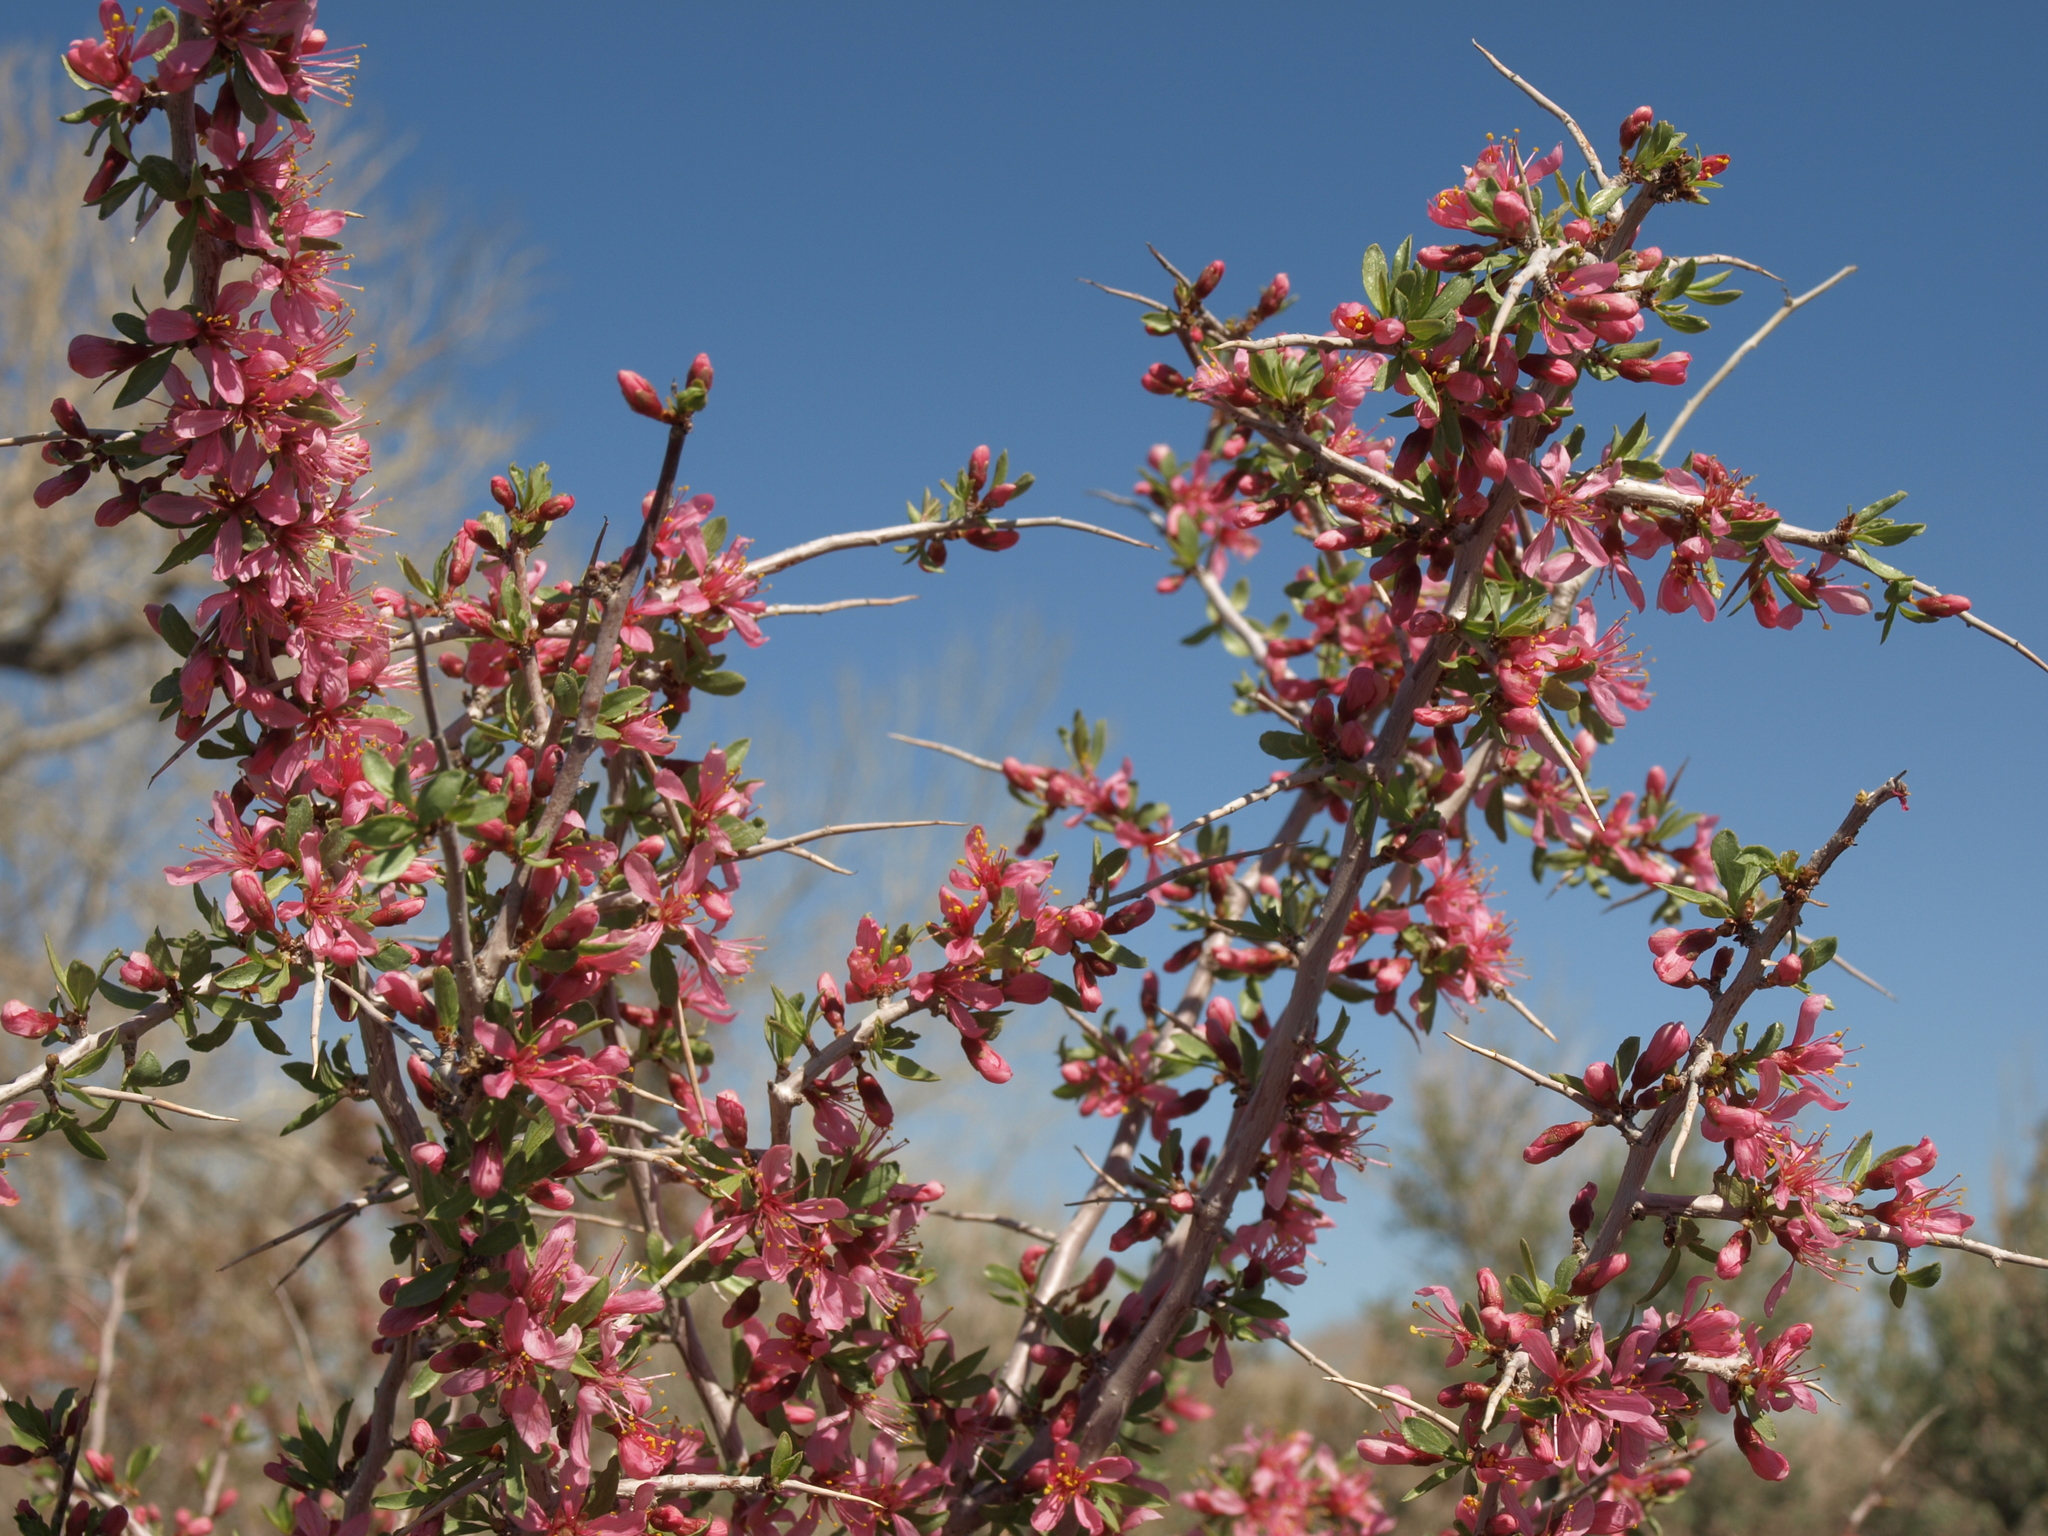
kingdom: Plantae
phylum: Tracheophyta
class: Magnoliopsida
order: Rosales
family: Rosaceae
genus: Prunus
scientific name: Prunus andersonii
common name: Desert peach
